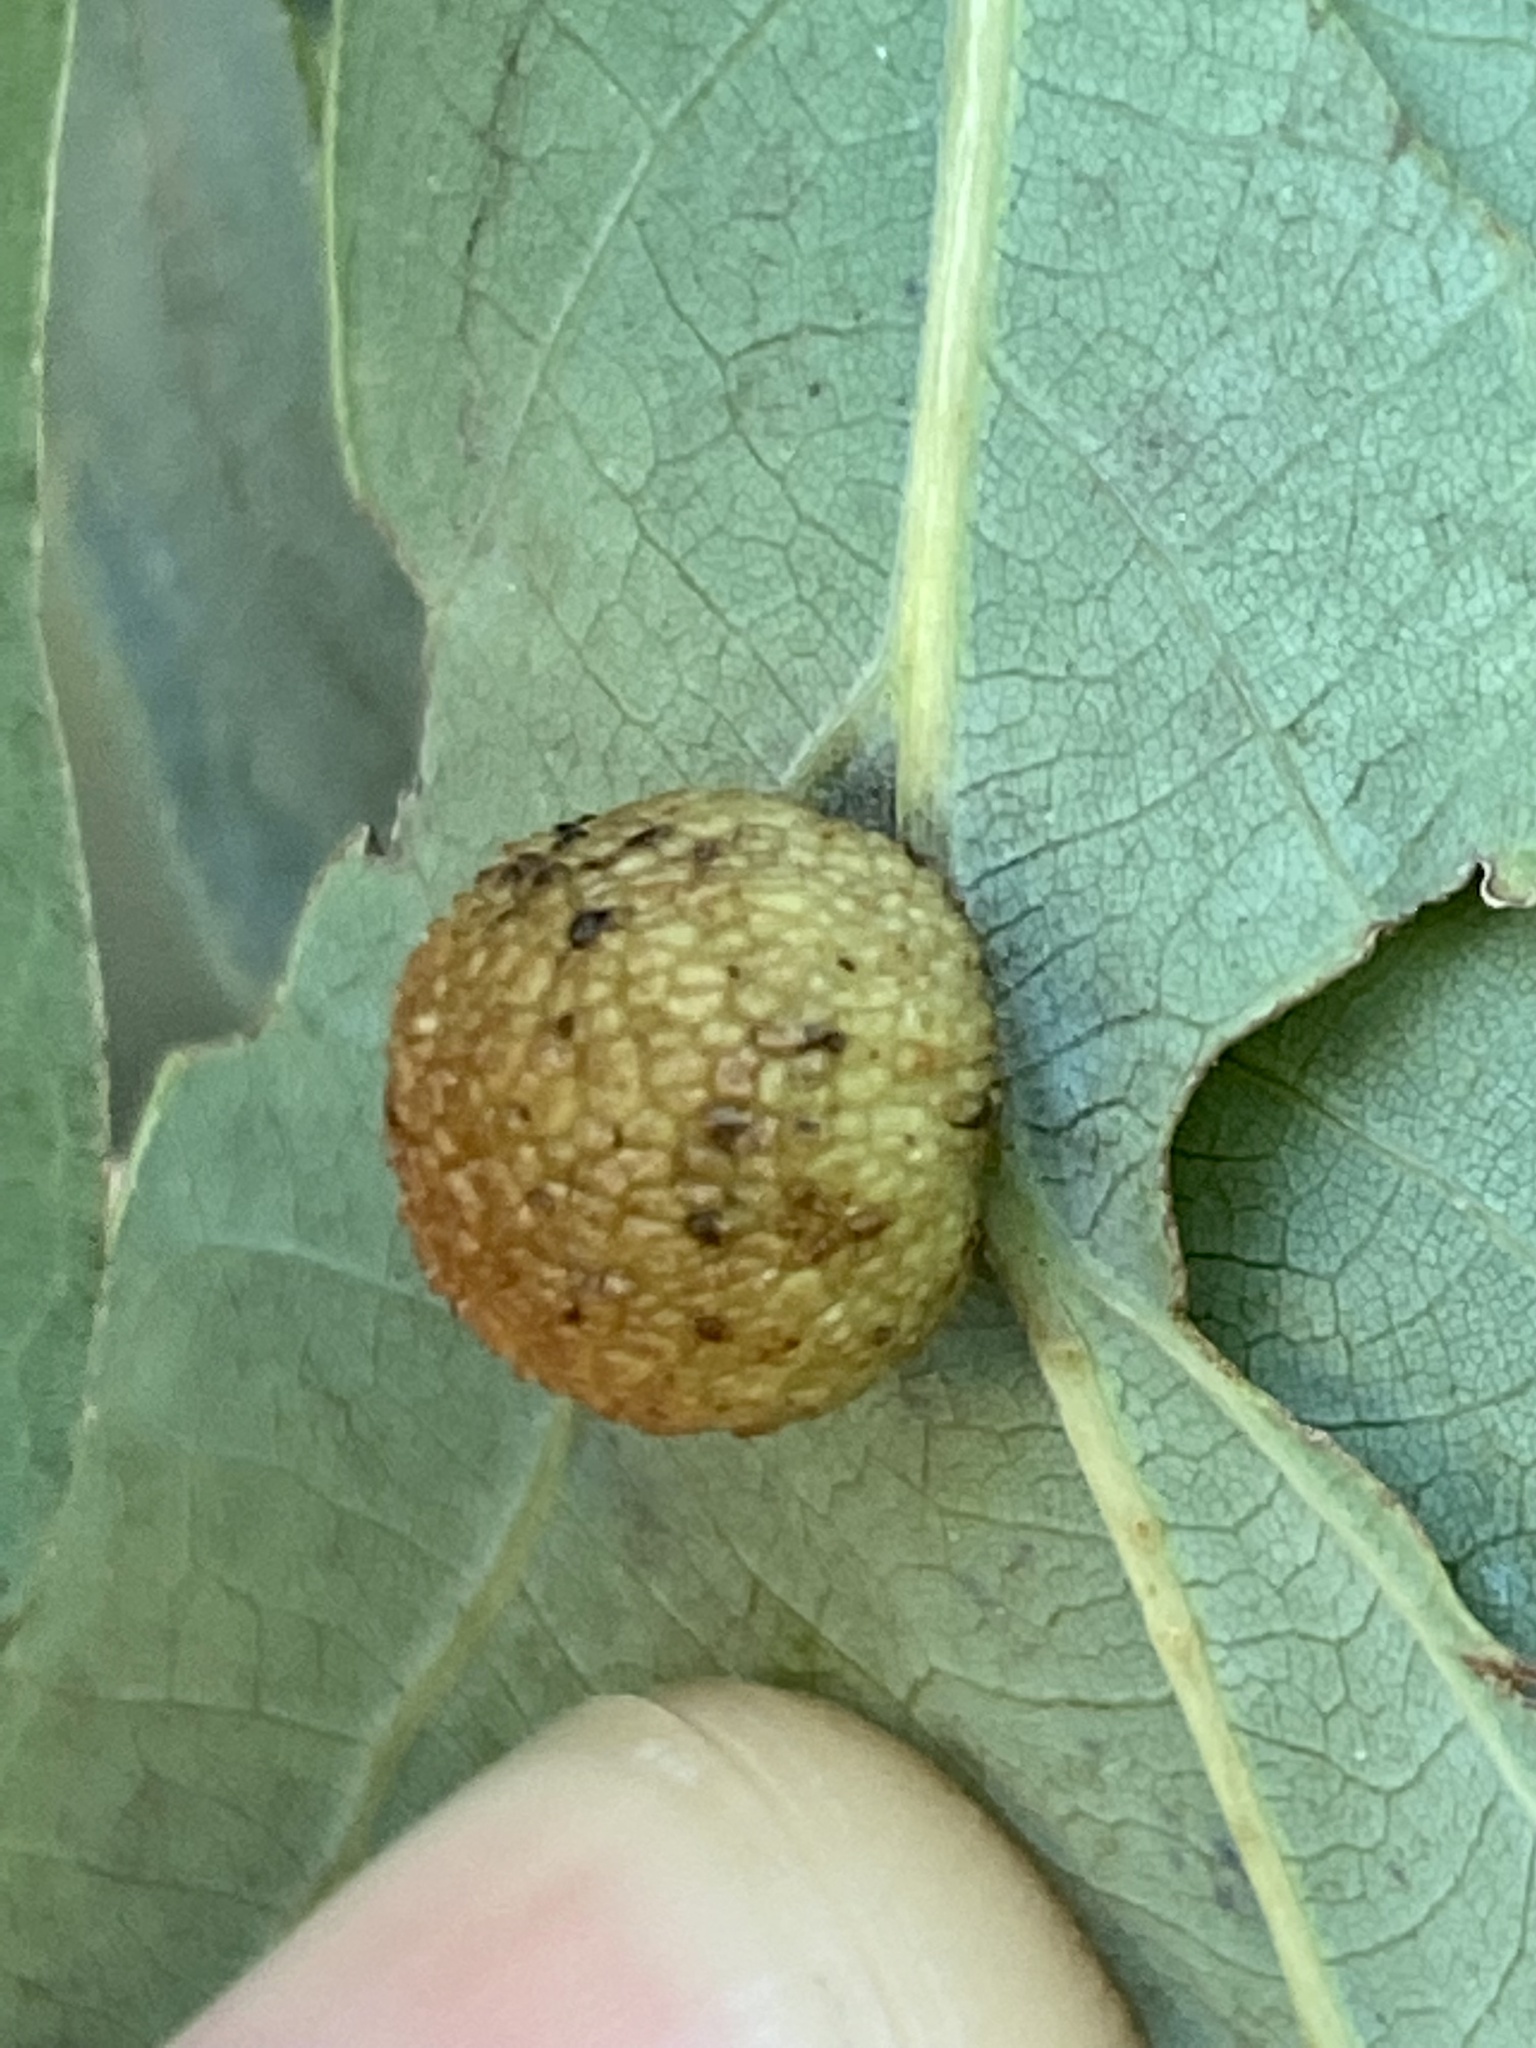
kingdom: Animalia
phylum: Arthropoda
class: Insecta
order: Hymenoptera
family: Cynipidae
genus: Acraspis
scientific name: Acraspis
